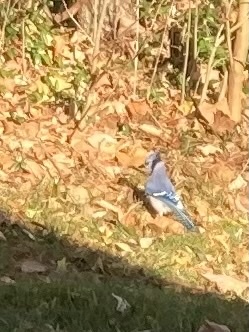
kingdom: Animalia
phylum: Chordata
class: Aves
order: Passeriformes
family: Corvidae
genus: Cyanocitta
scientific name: Cyanocitta cristata
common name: Blue jay
